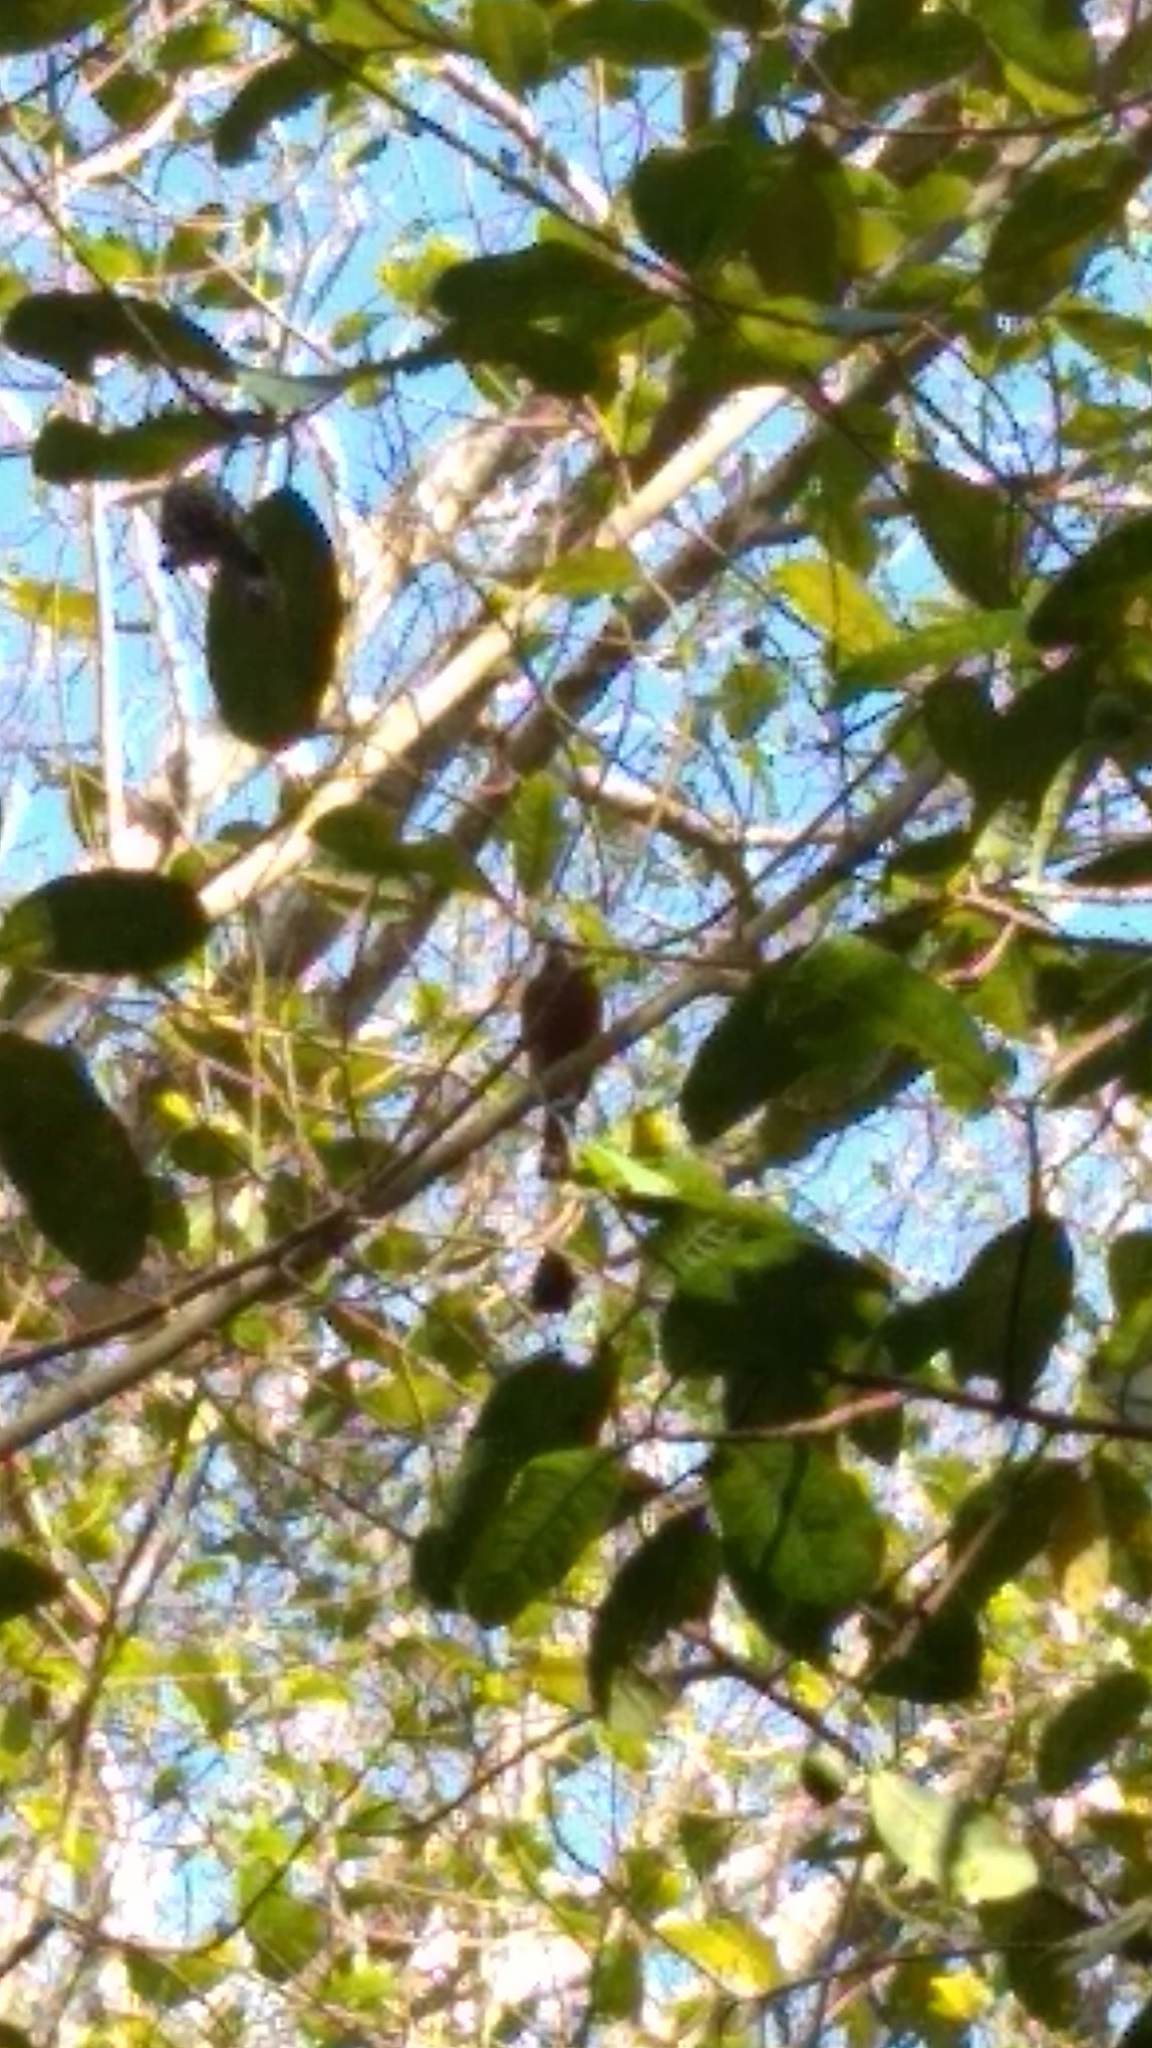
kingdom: Animalia
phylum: Chordata
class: Aves
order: Coraciiformes
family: Momotidae
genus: Eumomota
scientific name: Eumomota superciliosa
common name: Turquoise-browed motmot
